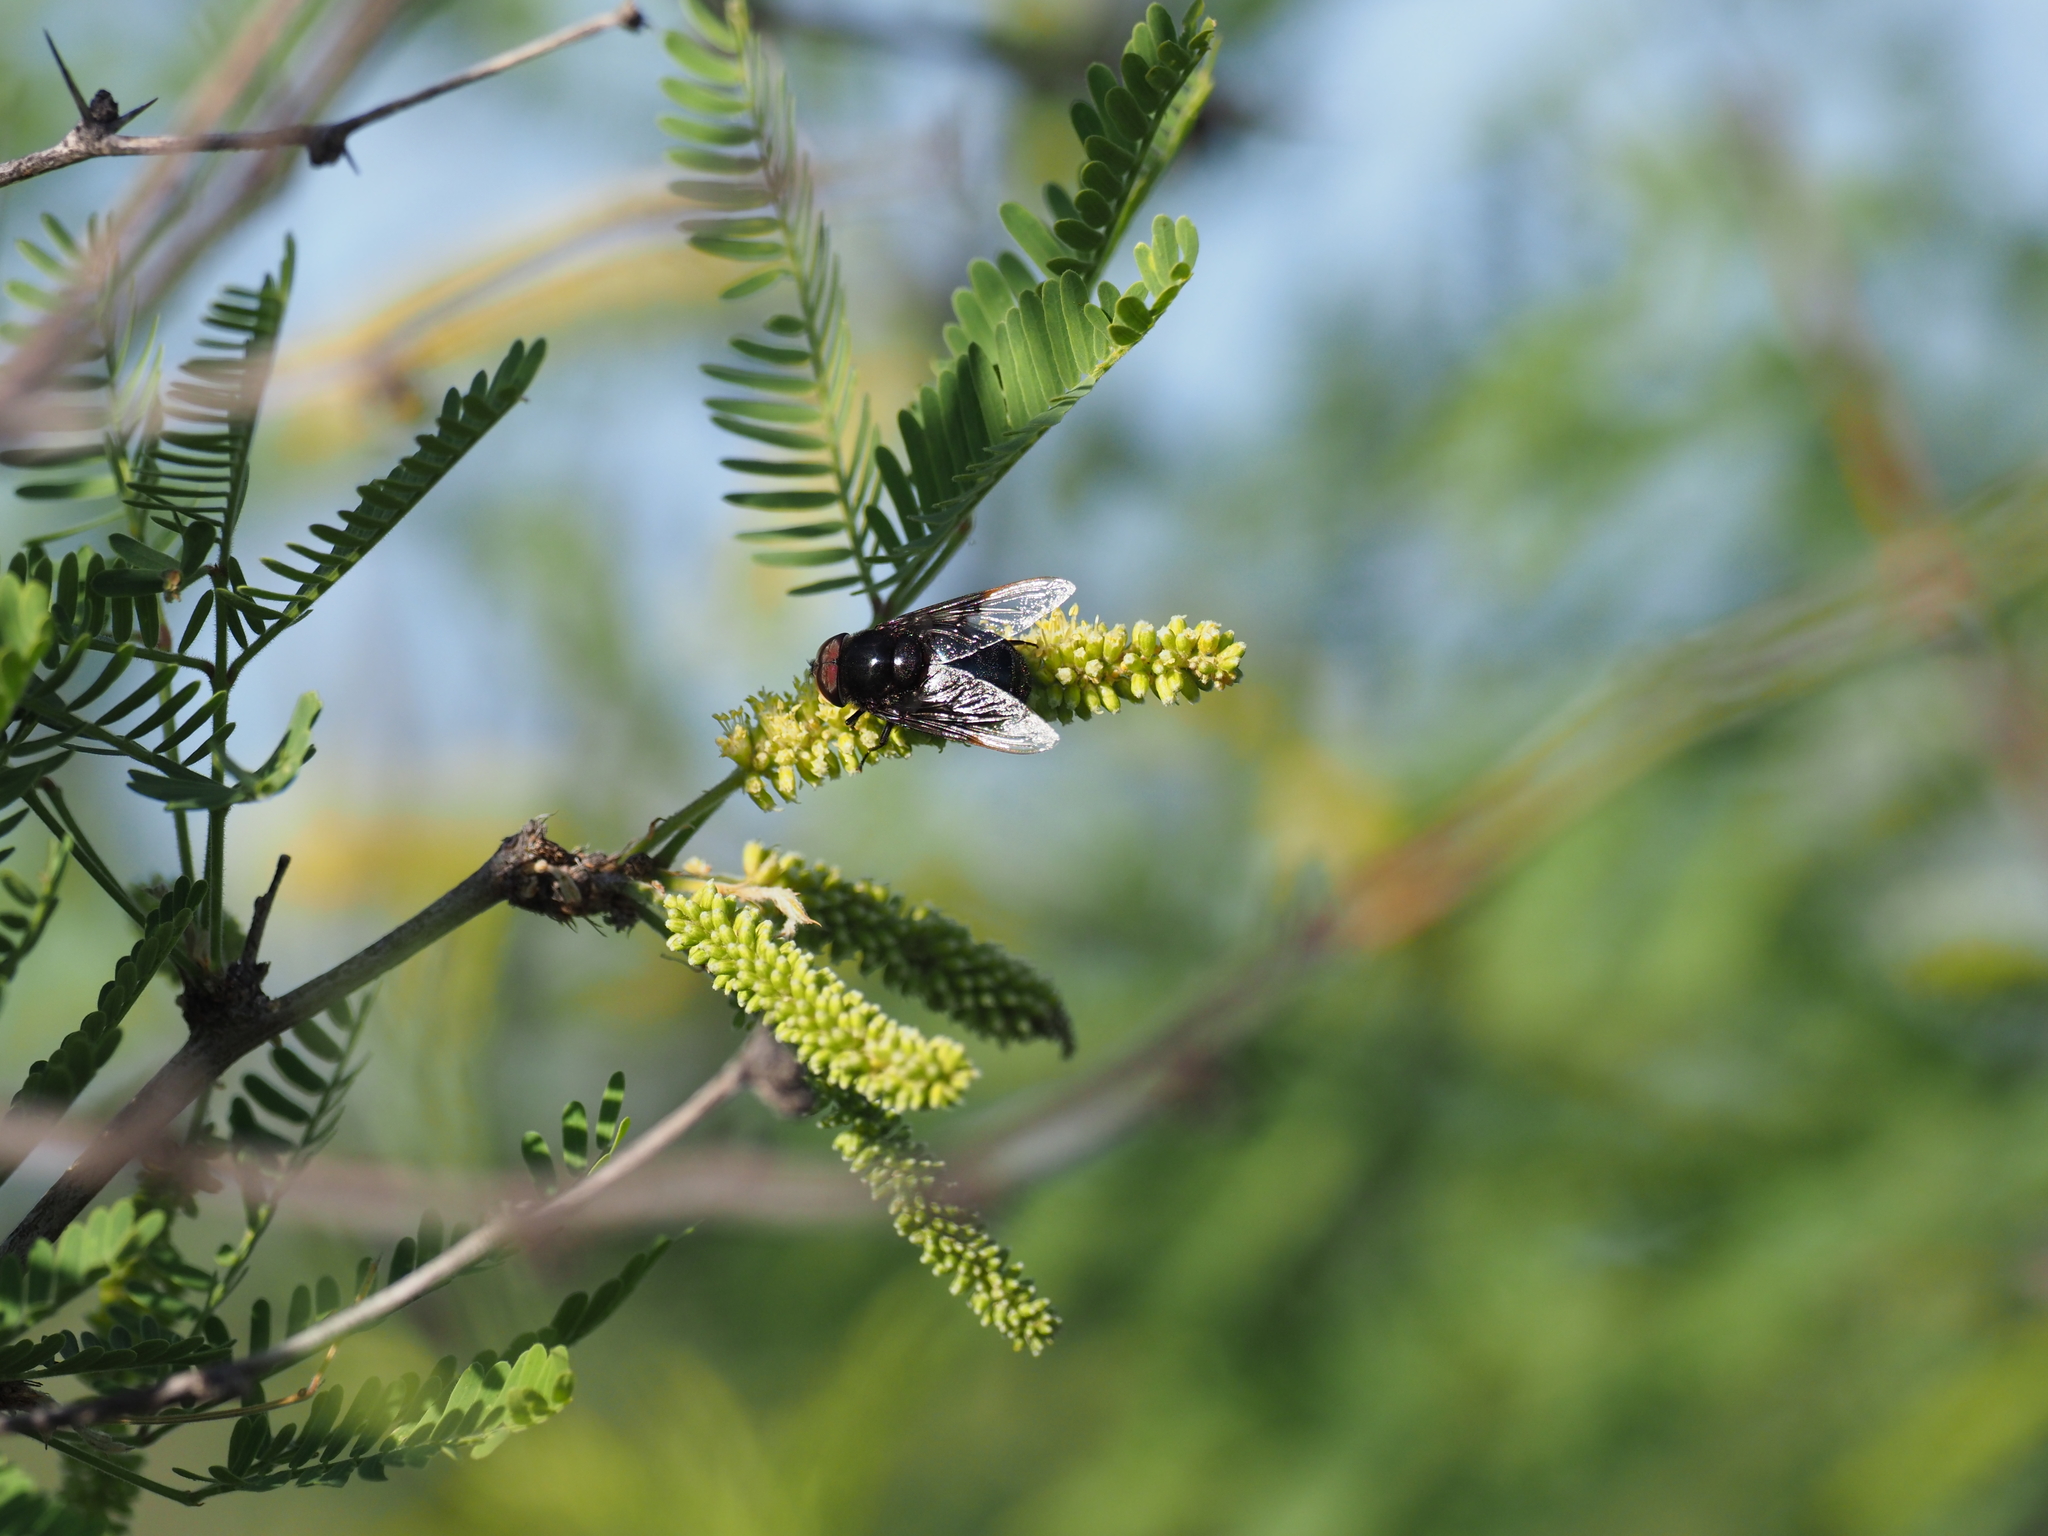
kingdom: Animalia
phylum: Arthropoda
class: Insecta
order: Diptera
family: Syrphidae
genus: Copestylum
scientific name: Copestylum
